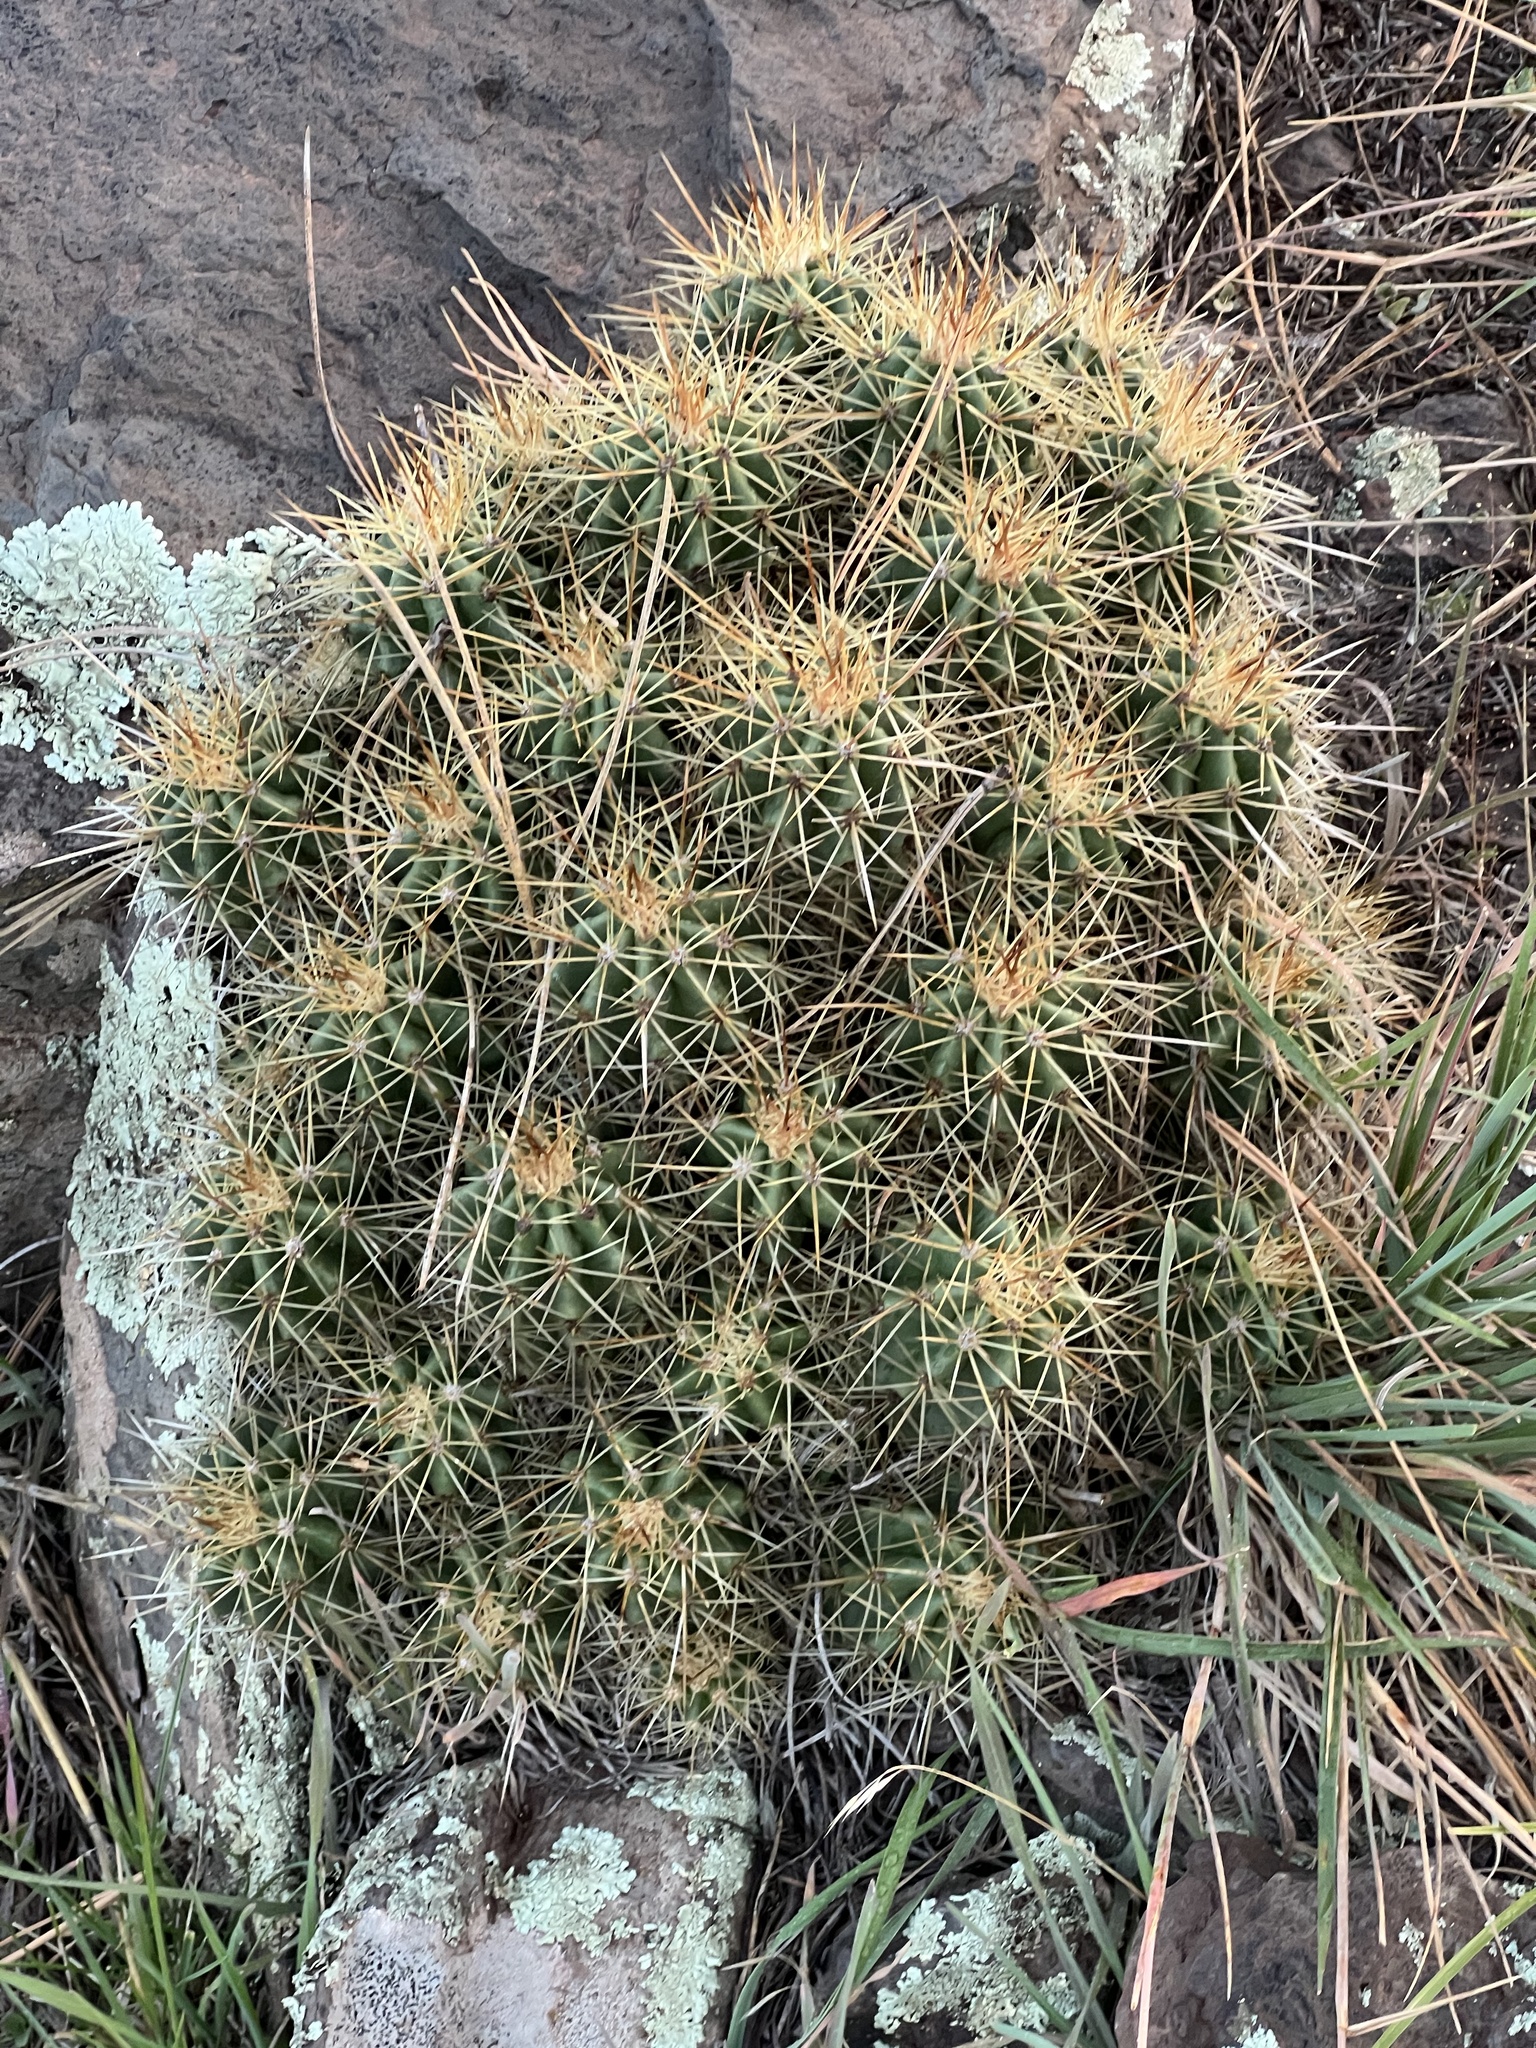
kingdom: Plantae
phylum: Tracheophyta
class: Magnoliopsida
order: Caryophyllales
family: Cactaceae
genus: Echinocereus
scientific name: Echinocereus bakeri
